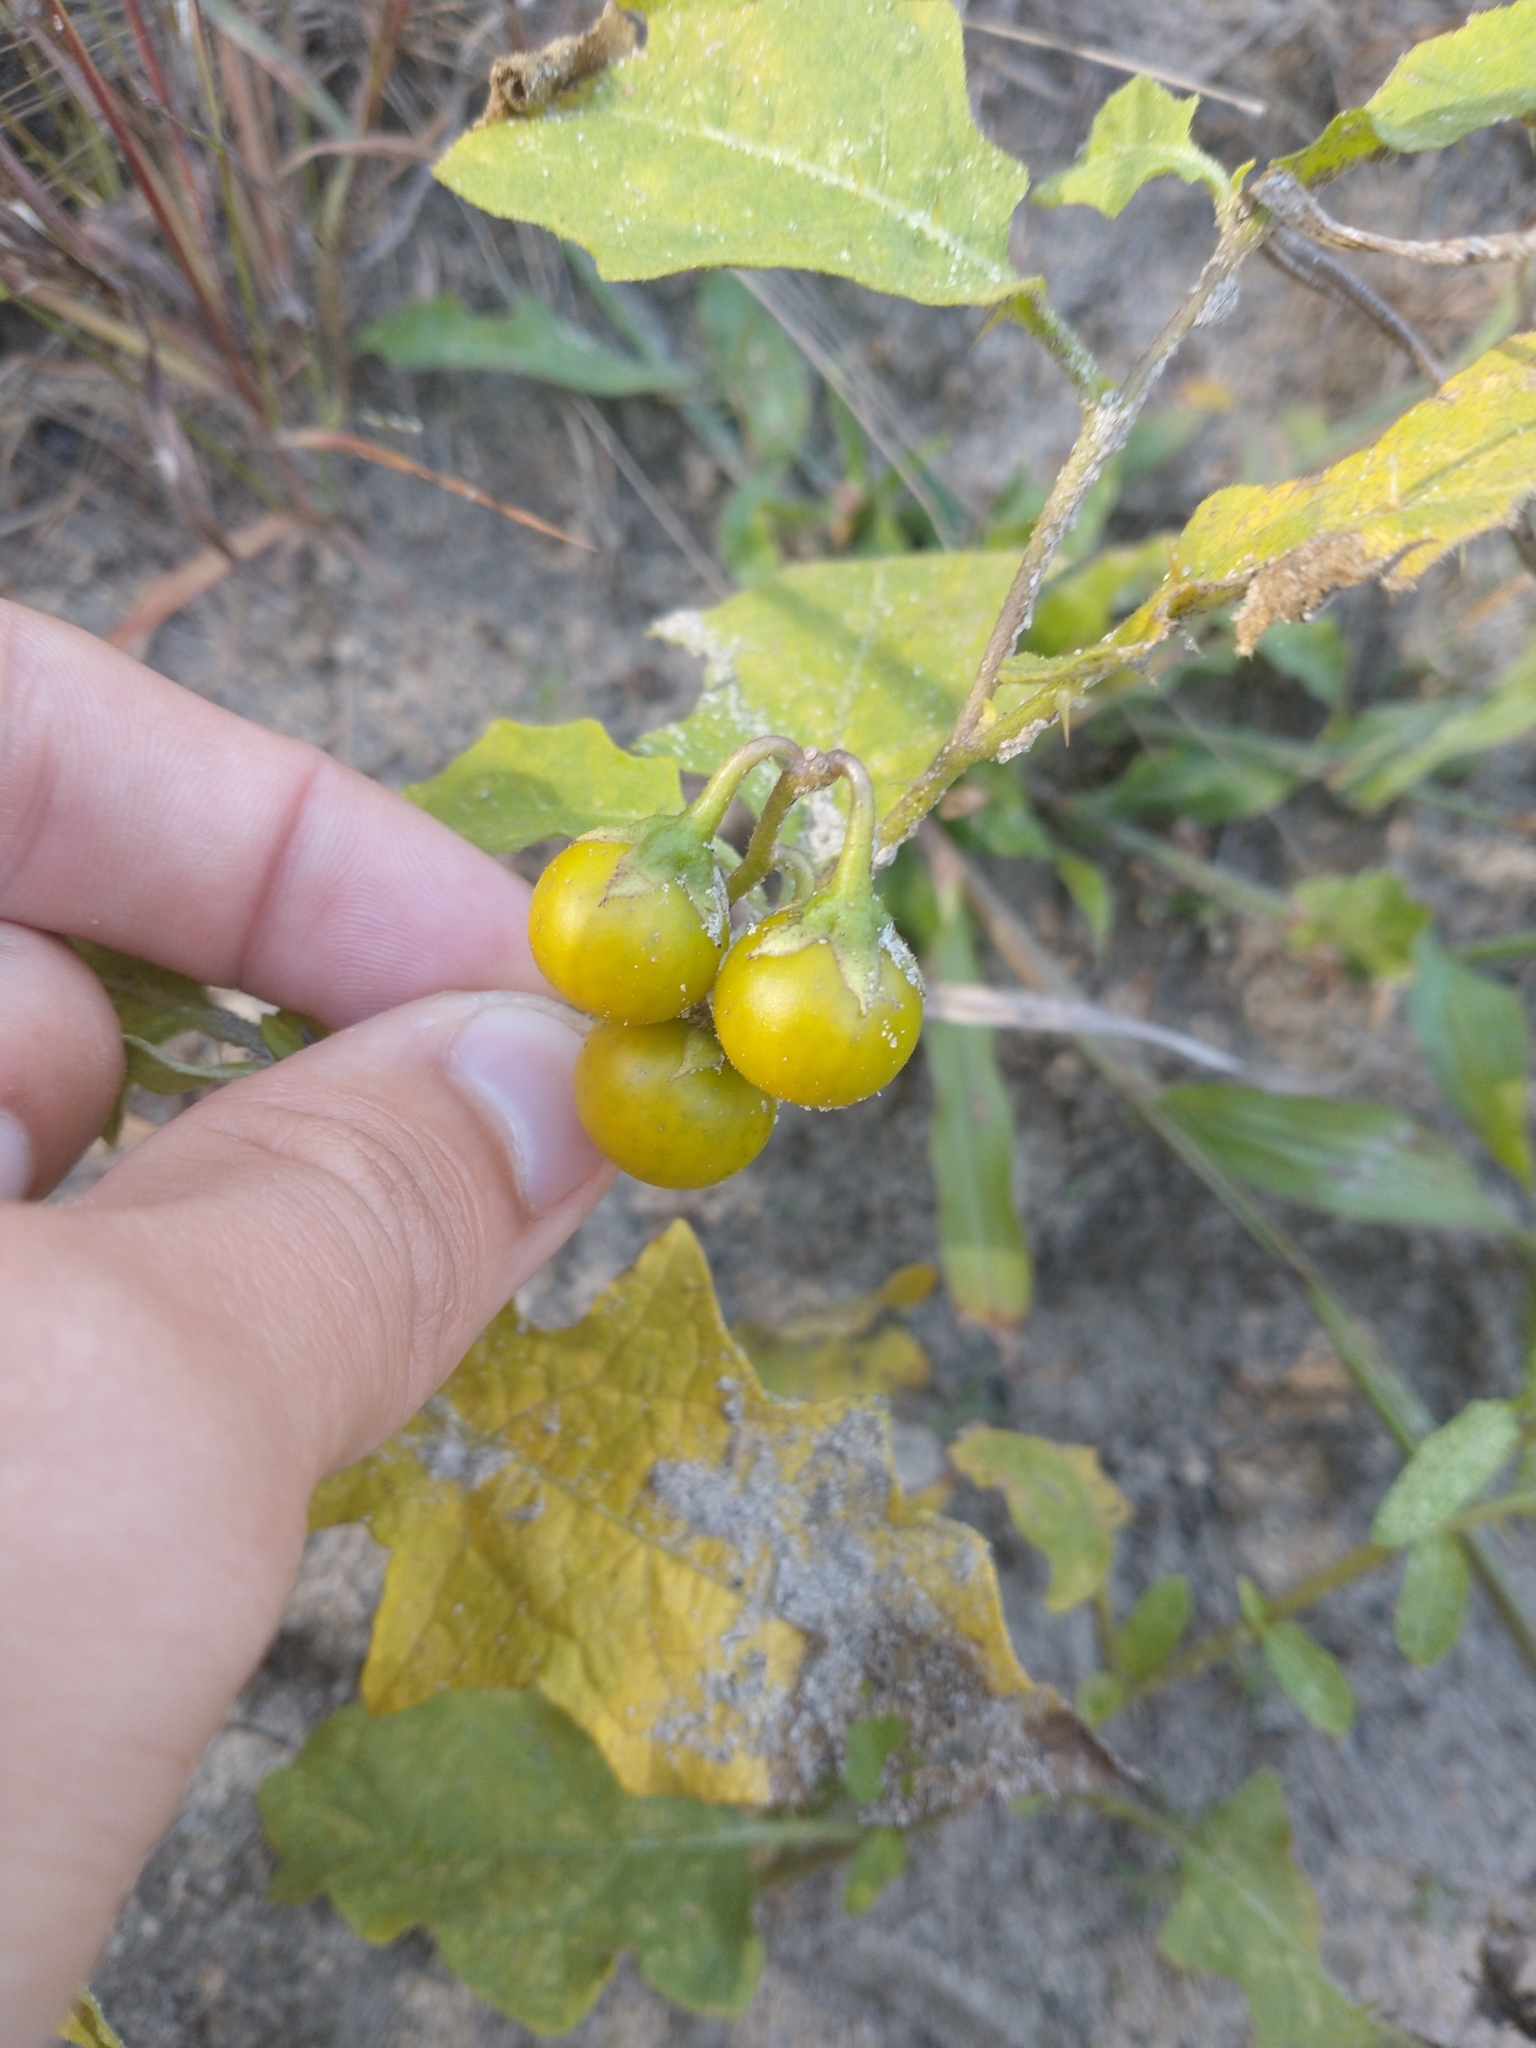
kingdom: Plantae
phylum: Tracheophyta
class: Magnoliopsida
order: Solanales
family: Solanaceae
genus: Solanum
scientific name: Solanum carolinense
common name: Horse-nettle
